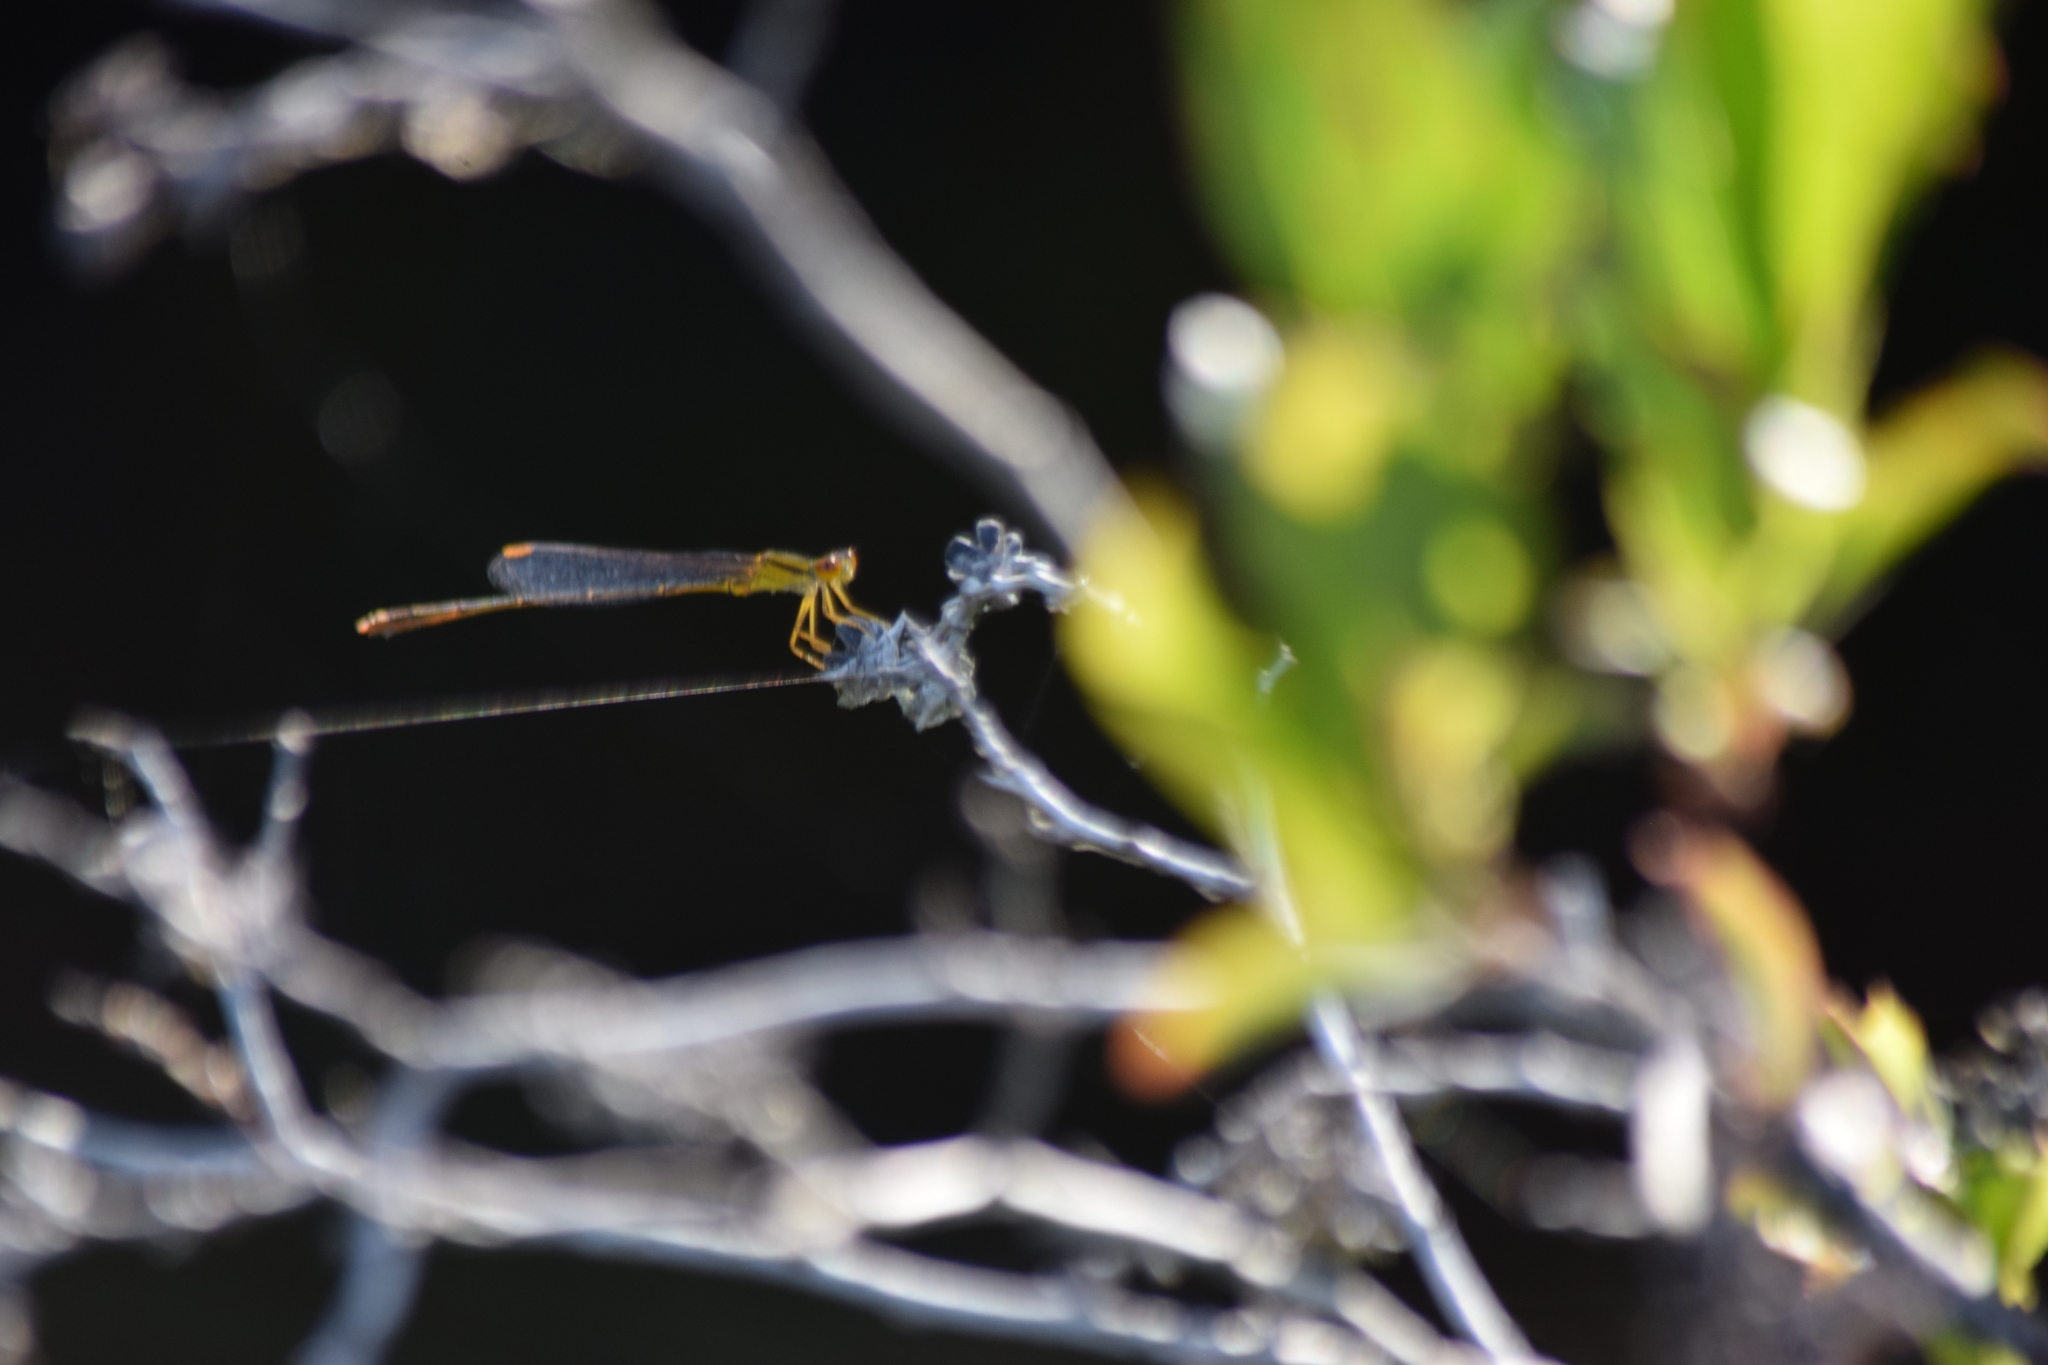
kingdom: Animalia
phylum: Arthropoda
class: Insecta
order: Odonata
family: Coenagrionidae
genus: Enallagma
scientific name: Enallagma signatum
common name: Orange bluet
